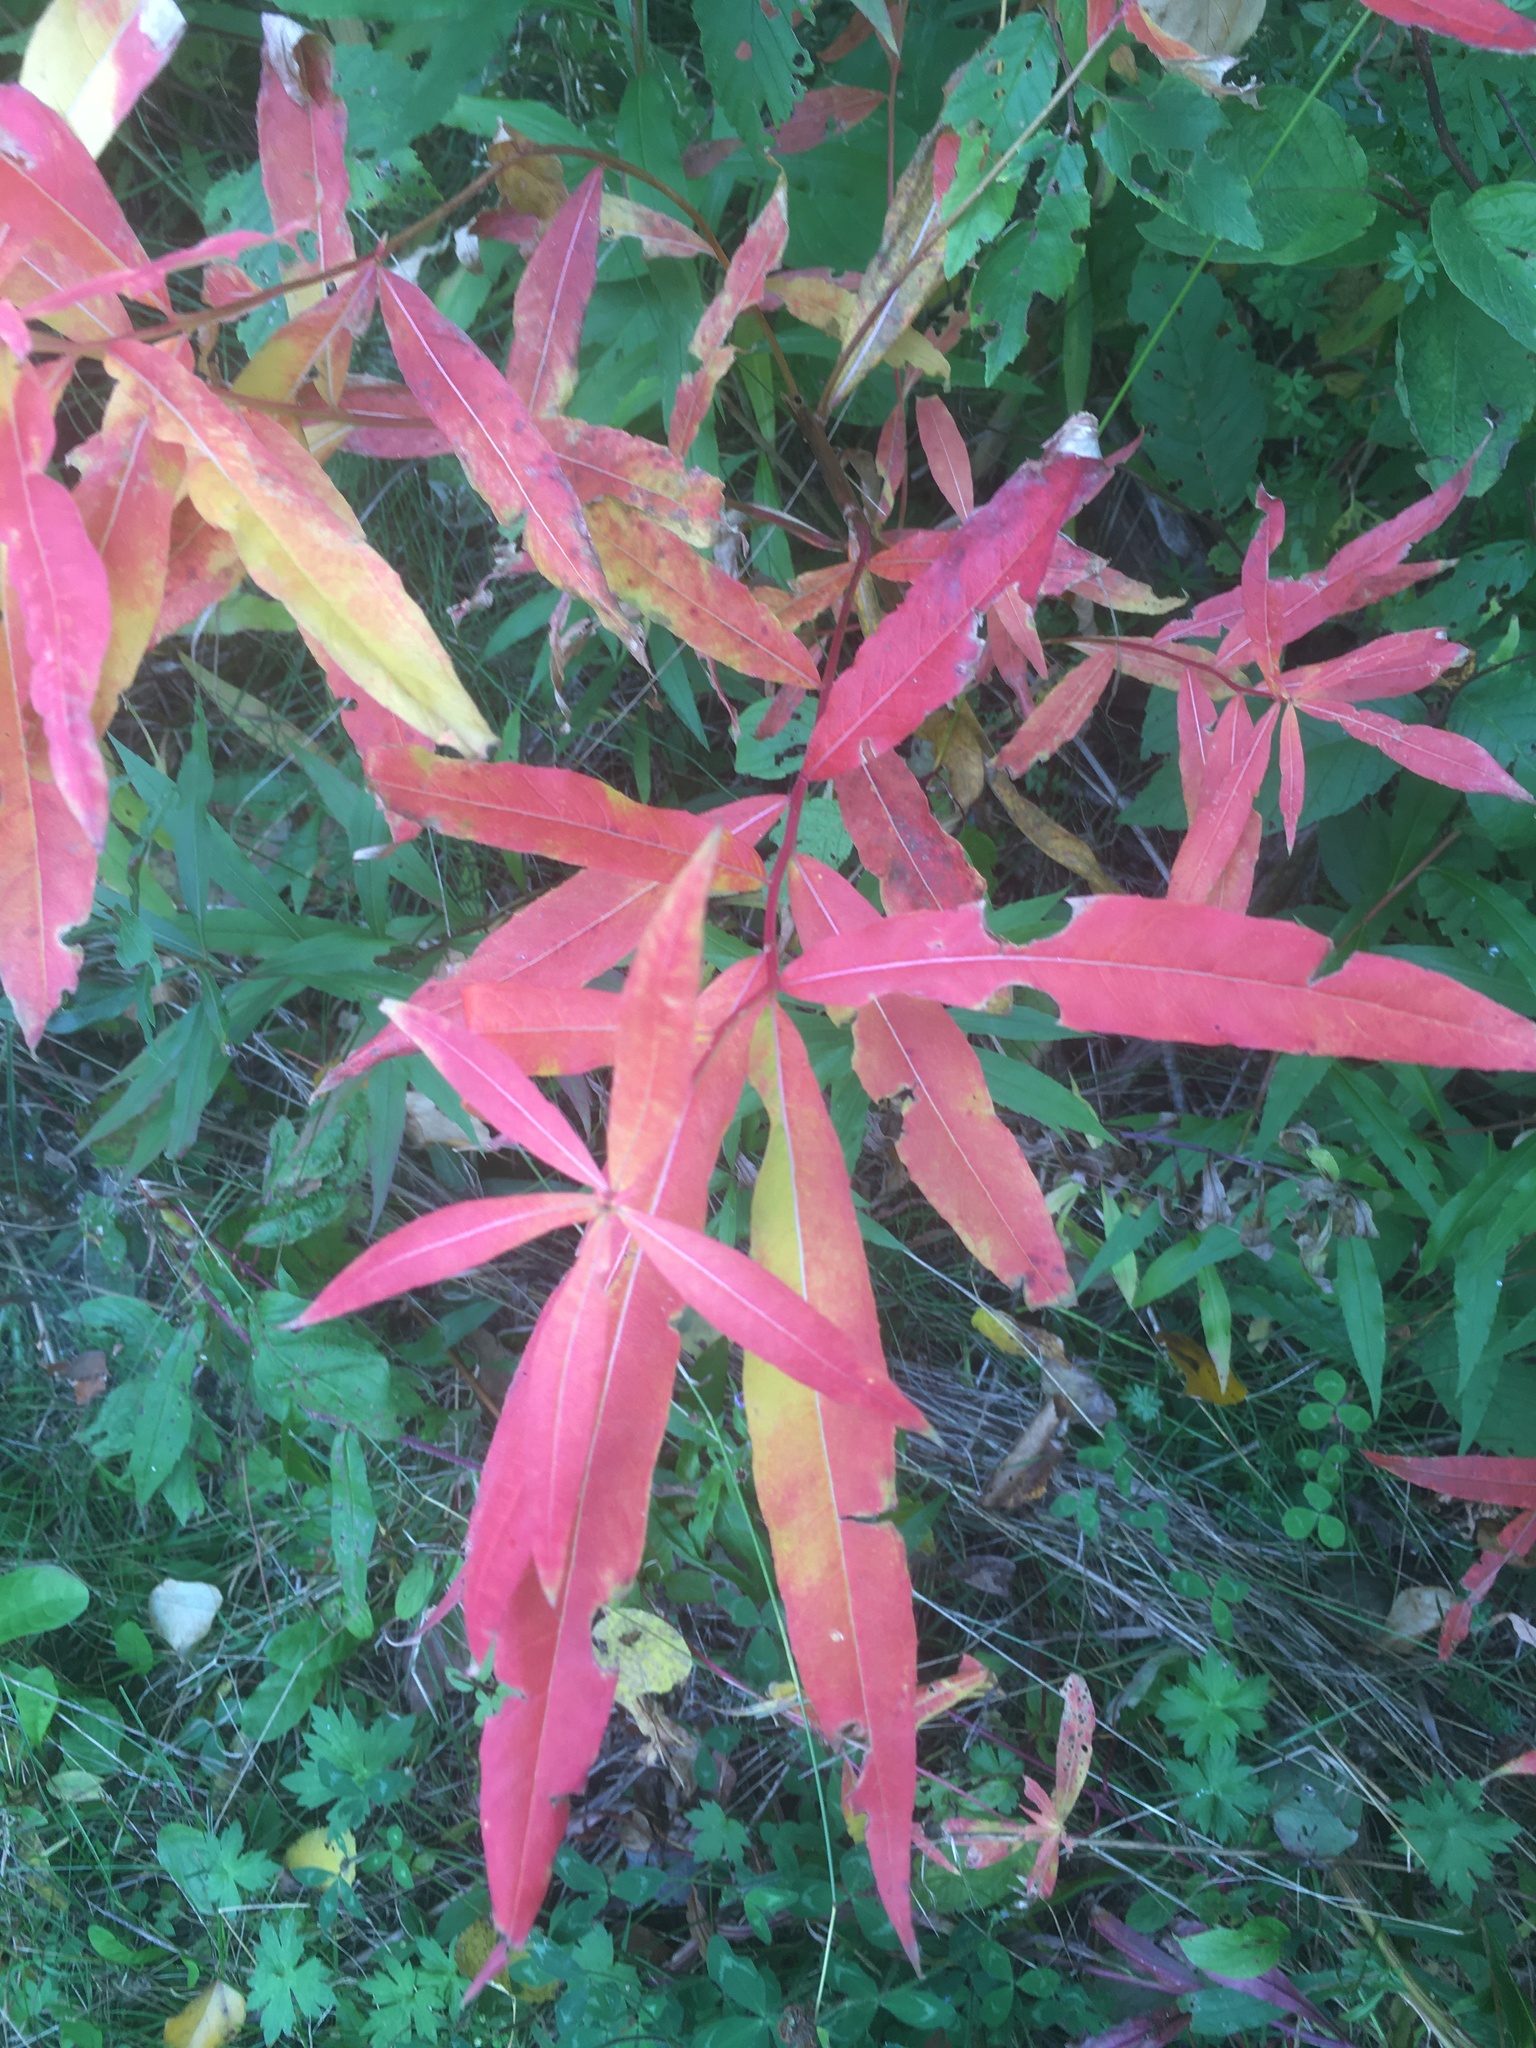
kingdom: Plantae
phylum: Tracheophyta
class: Magnoliopsida
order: Myrtales
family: Onagraceae
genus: Chamaenerion
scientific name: Chamaenerion angustifolium
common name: Fireweed
